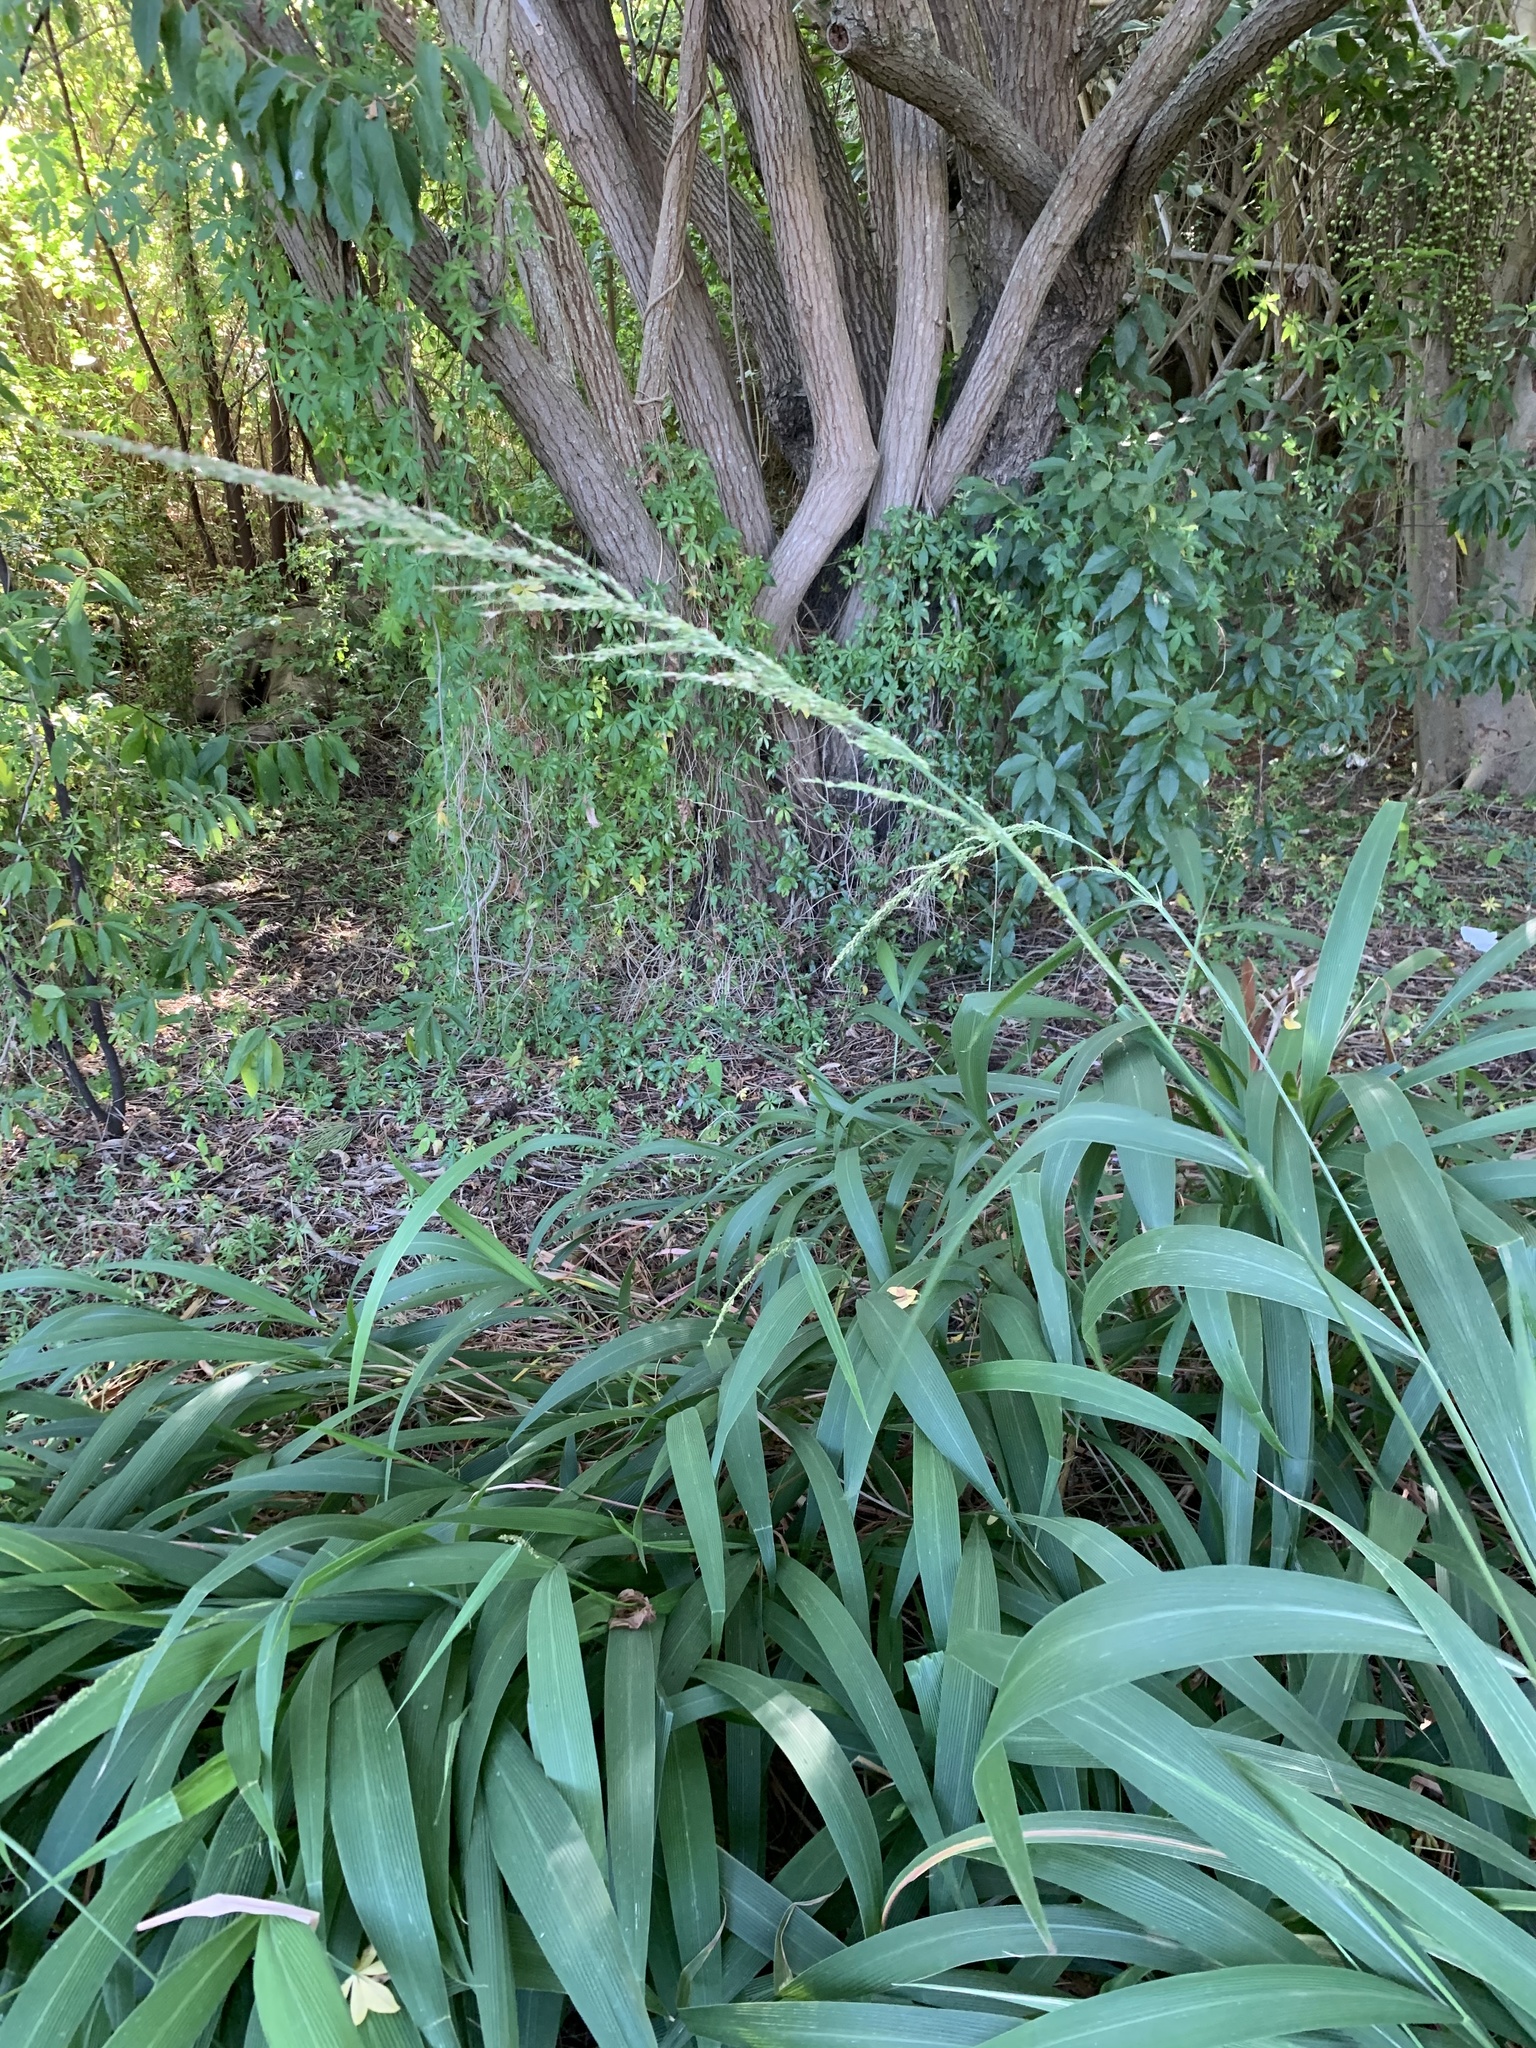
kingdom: Plantae
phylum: Tracheophyta
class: Liliopsida
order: Poales
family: Poaceae
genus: Setaria
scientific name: Setaria megaphylla
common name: Bigleaf bristlegrass
